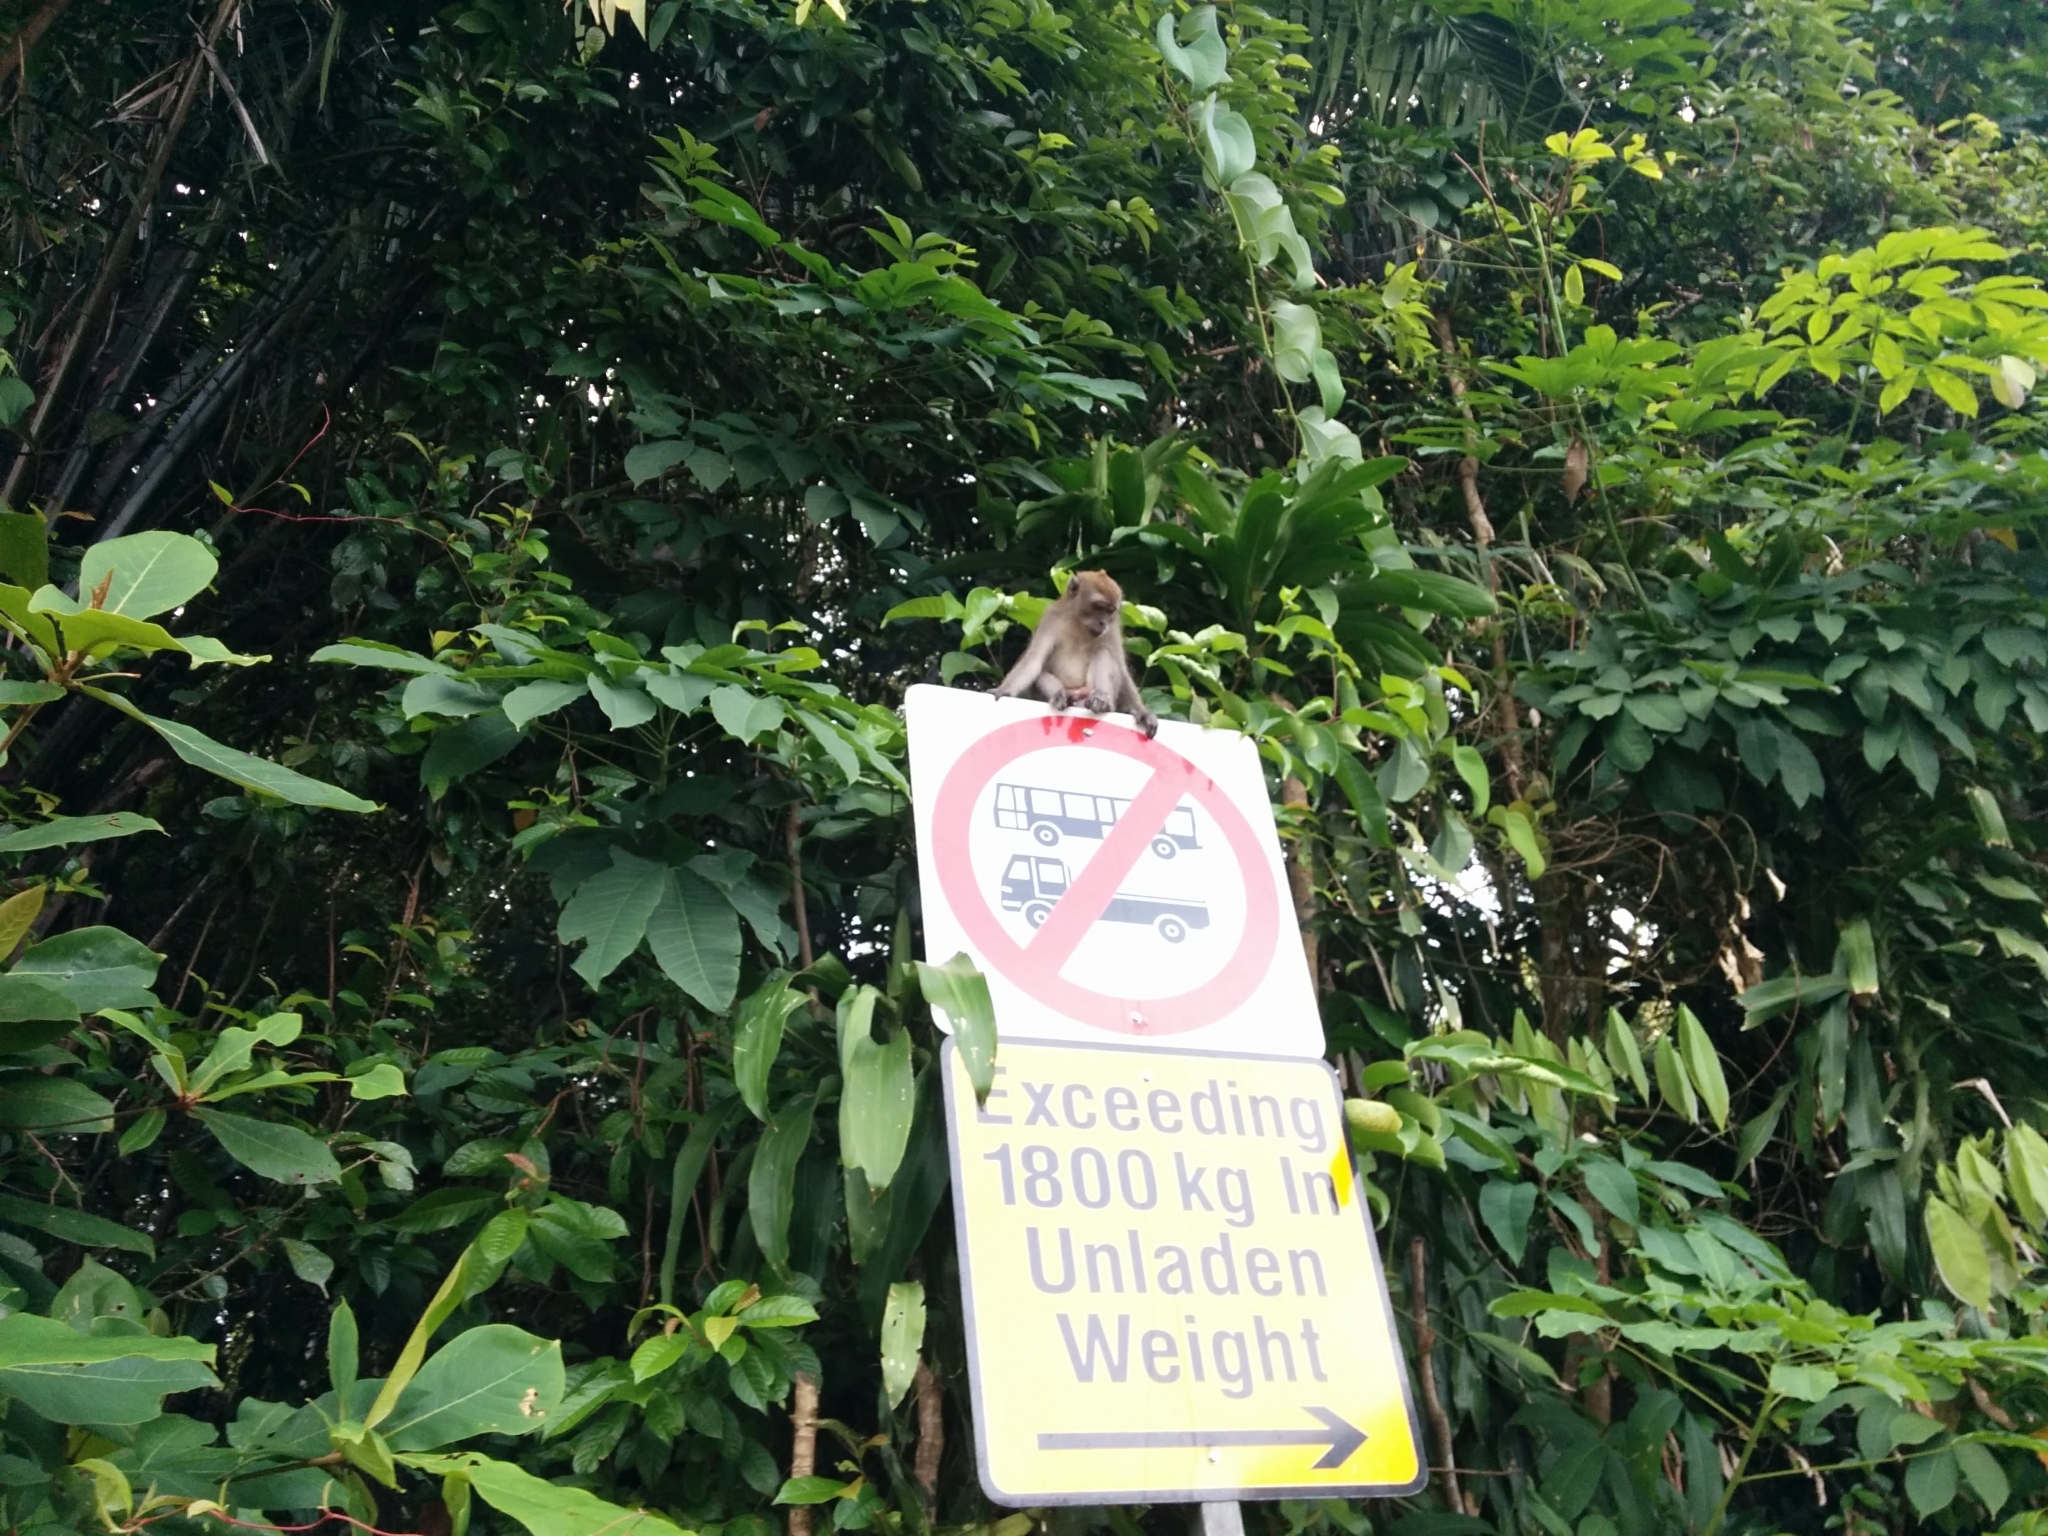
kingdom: Animalia
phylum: Chordata
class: Mammalia
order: Primates
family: Cercopithecidae
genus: Macaca
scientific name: Macaca fascicularis
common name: Crab-eating macaque
